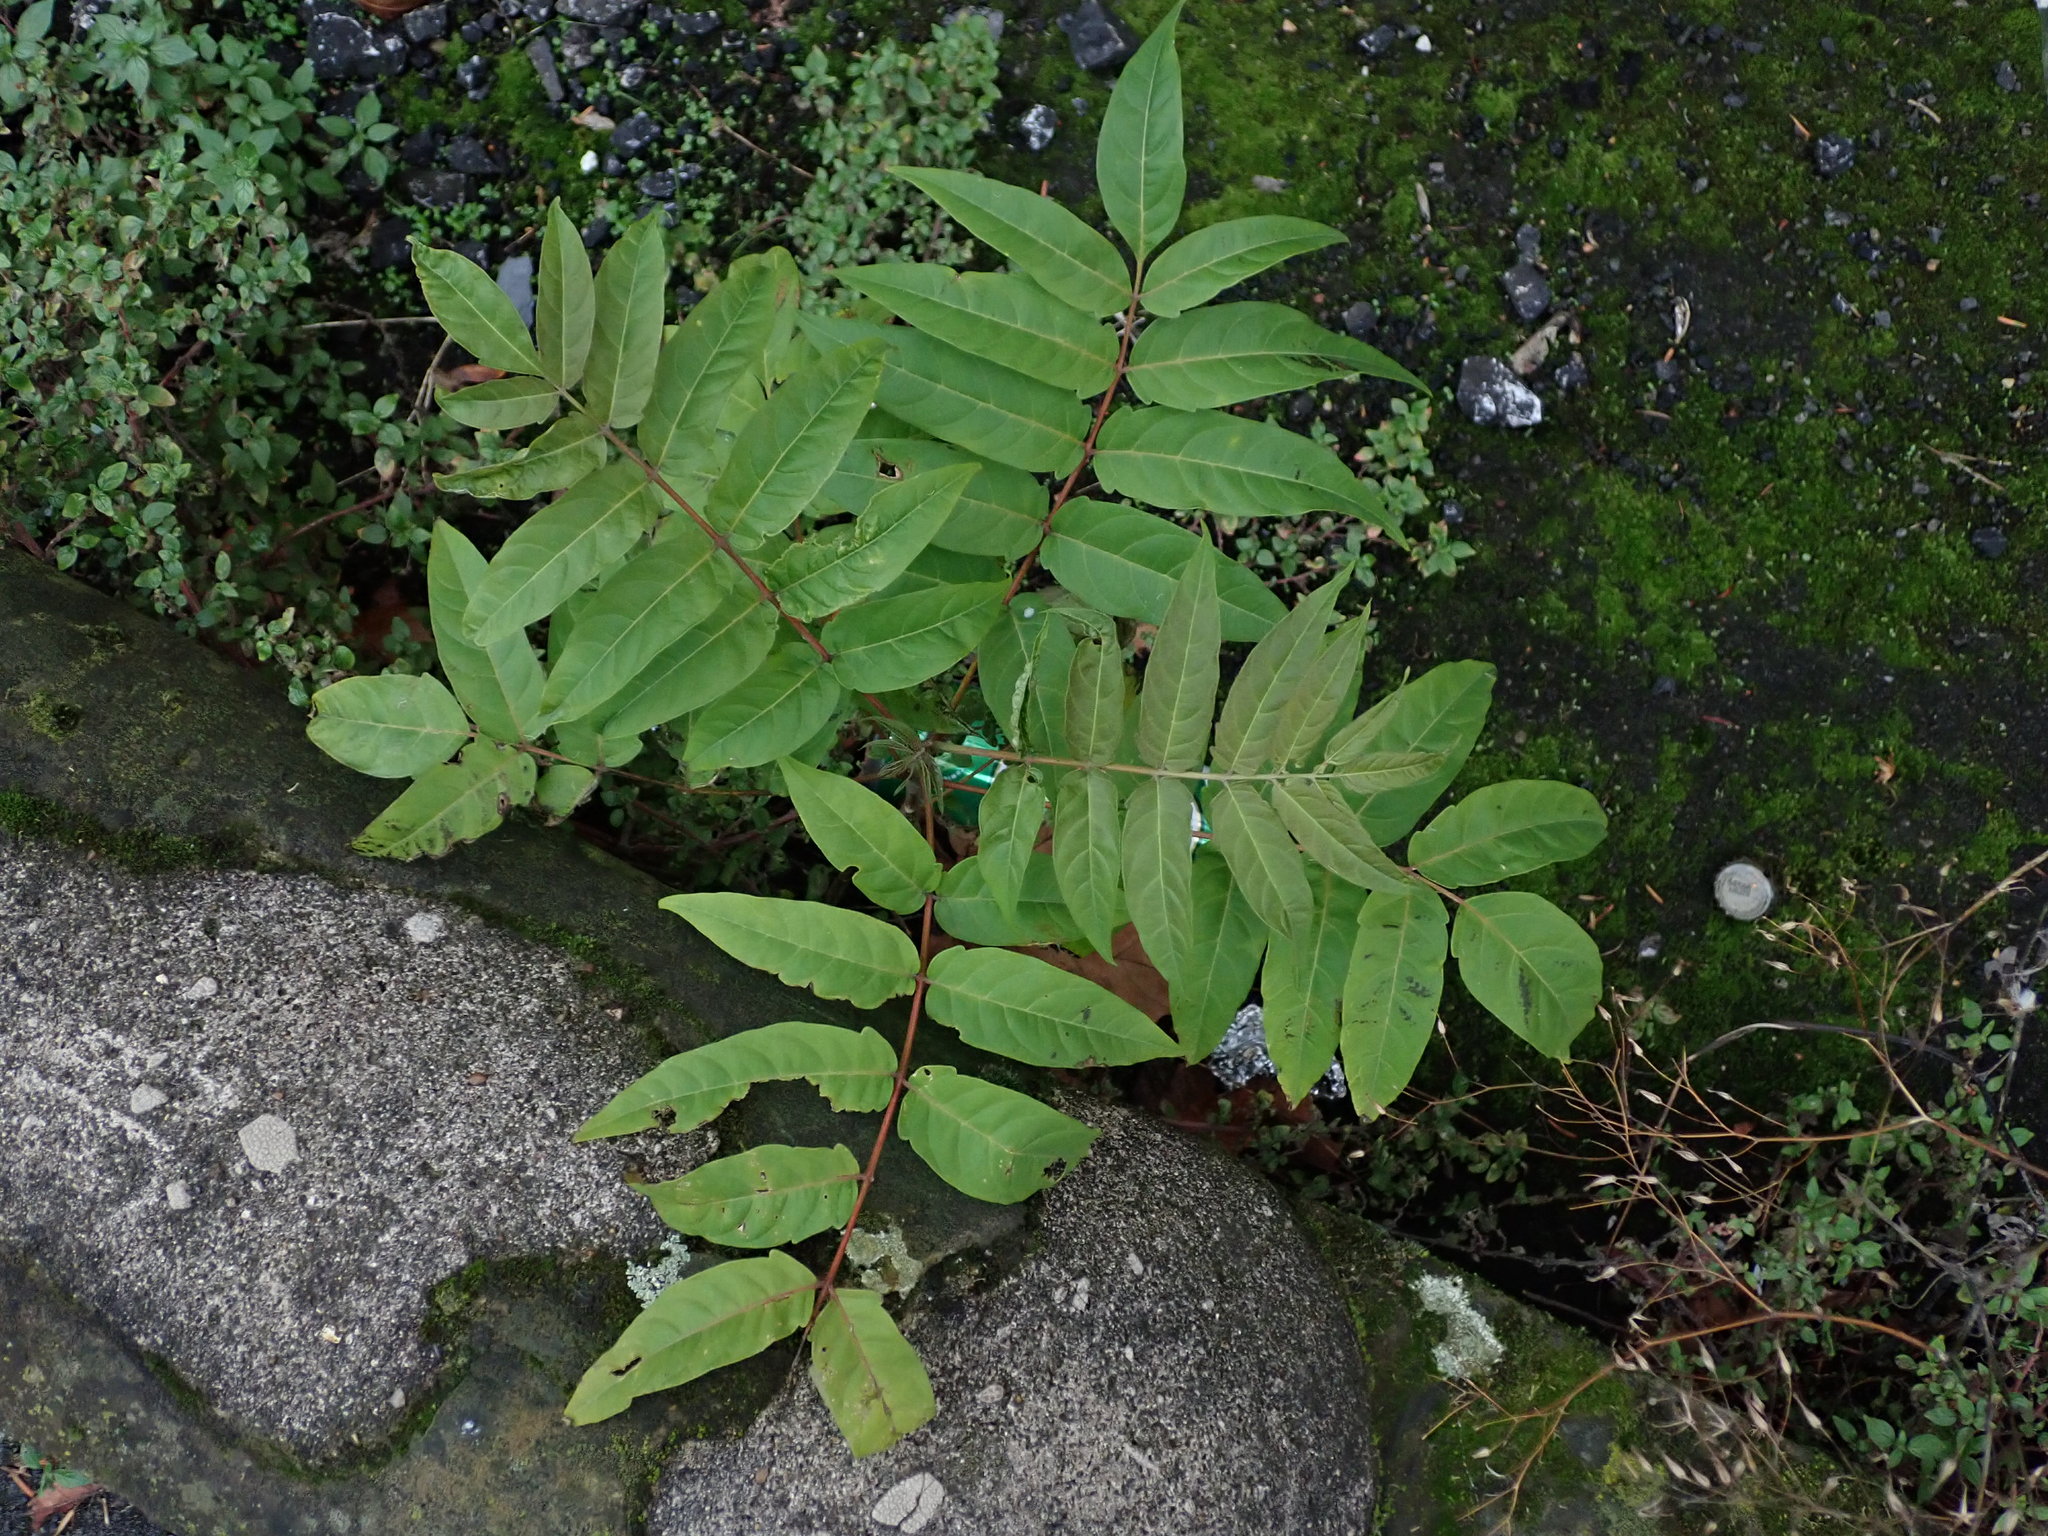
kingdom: Plantae
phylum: Tracheophyta
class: Magnoliopsida
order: Sapindales
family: Simaroubaceae
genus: Ailanthus
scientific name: Ailanthus altissima
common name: Tree-of-heaven
